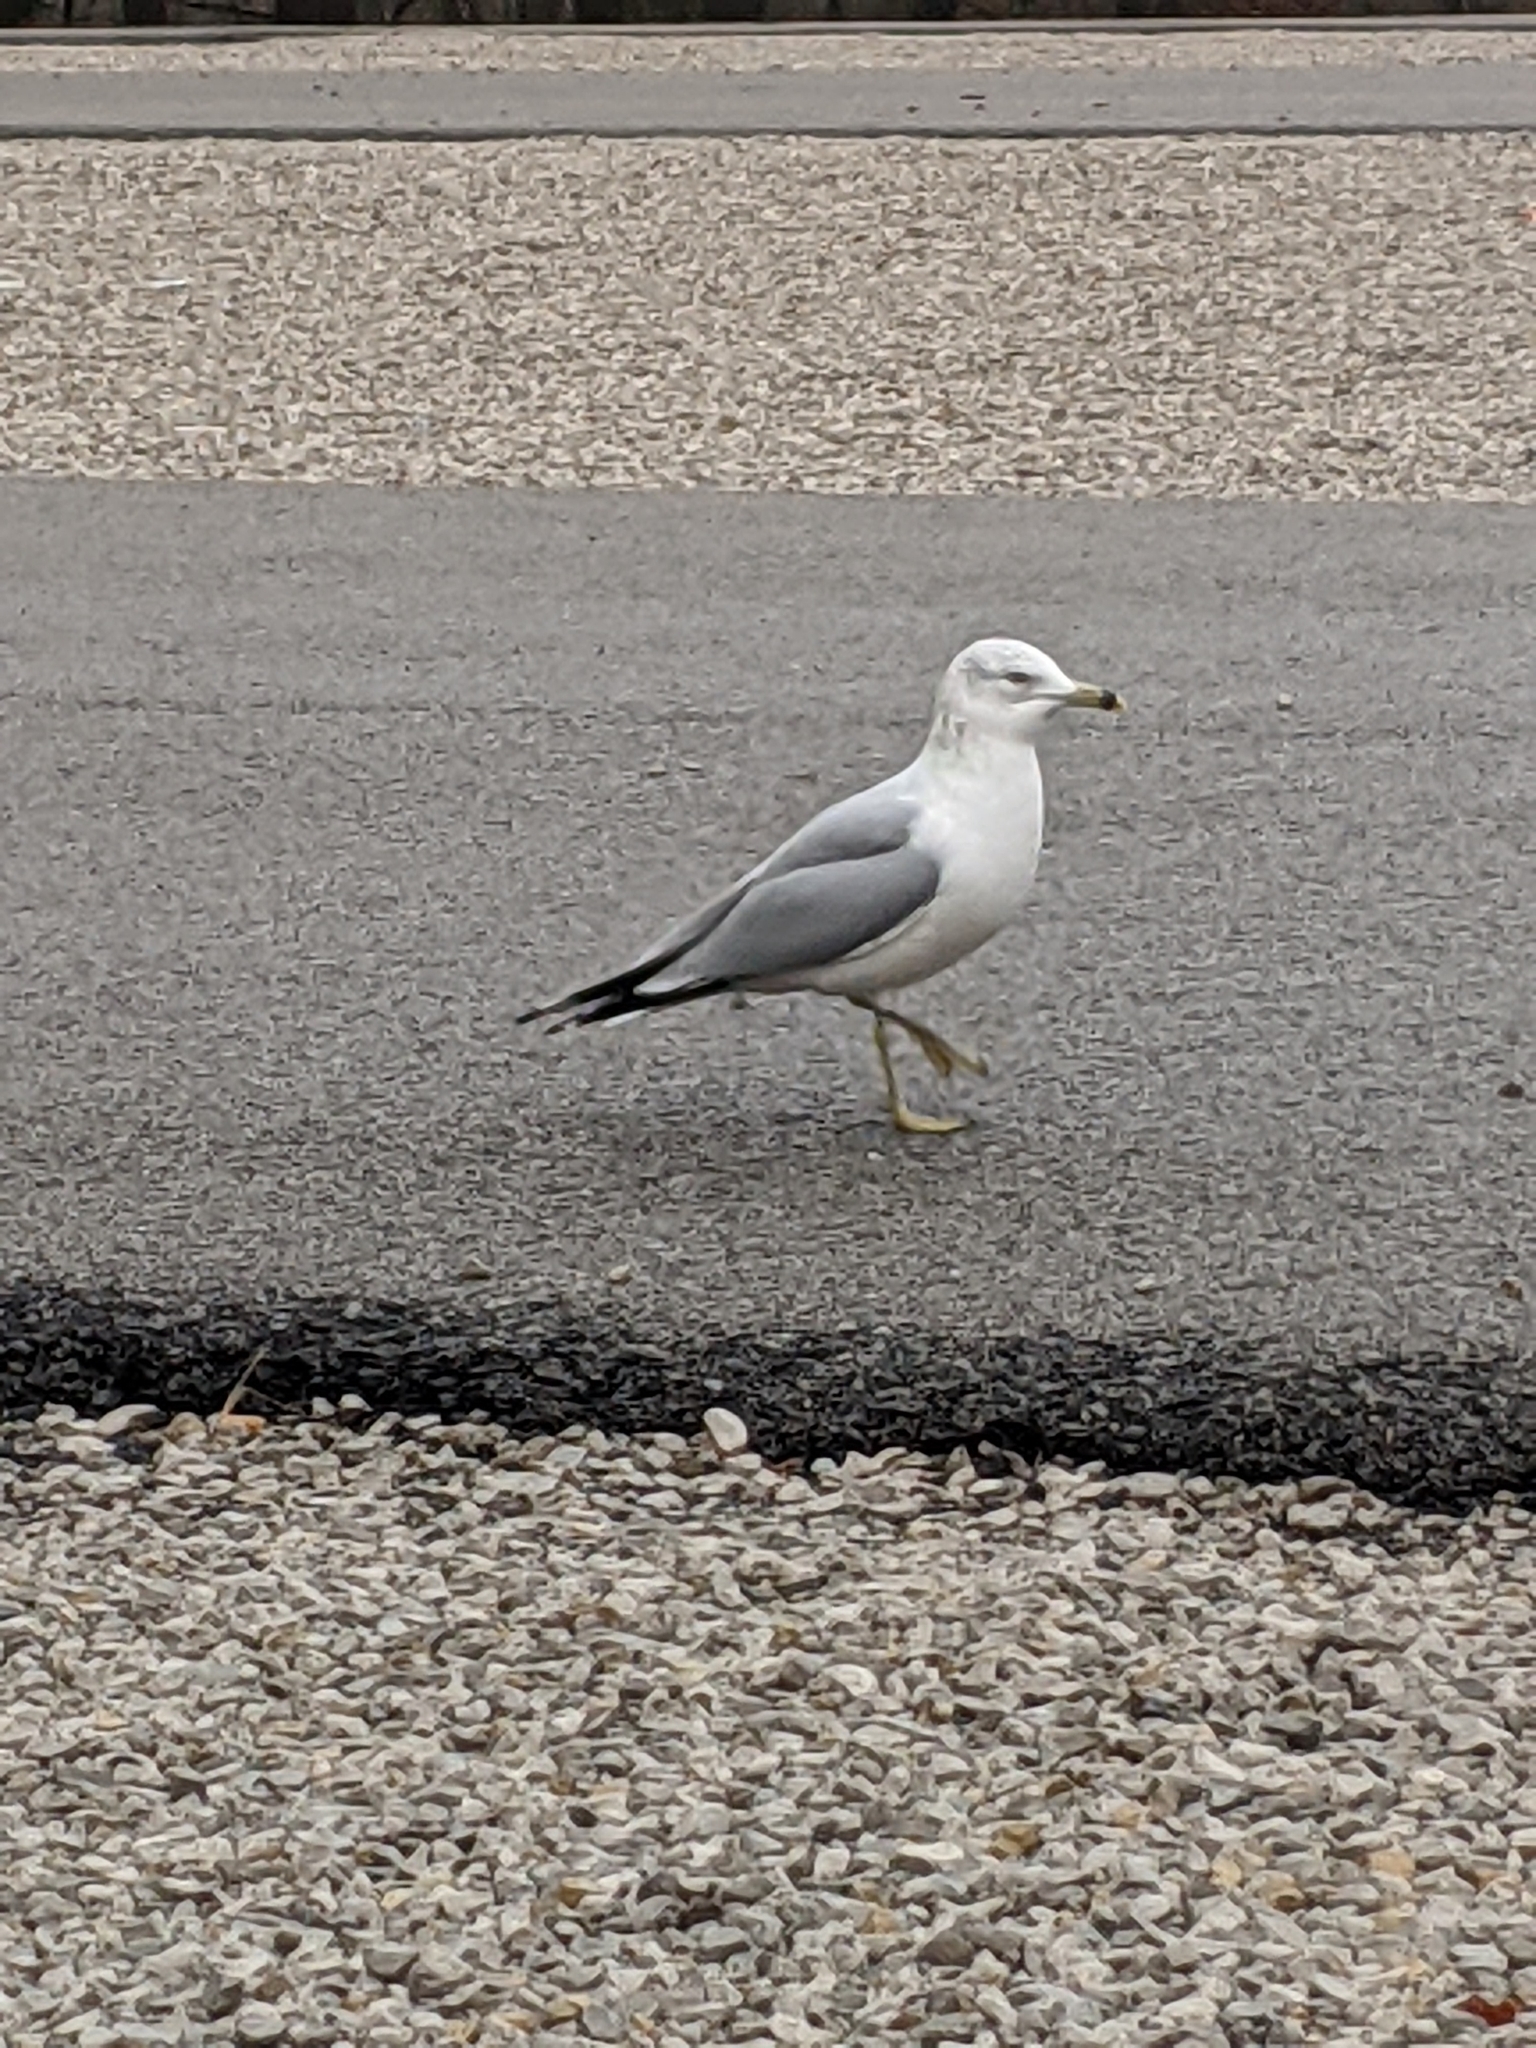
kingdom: Animalia
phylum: Chordata
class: Aves
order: Charadriiformes
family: Laridae
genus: Larus
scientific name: Larus delawarensis
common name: Ring-billed gull
